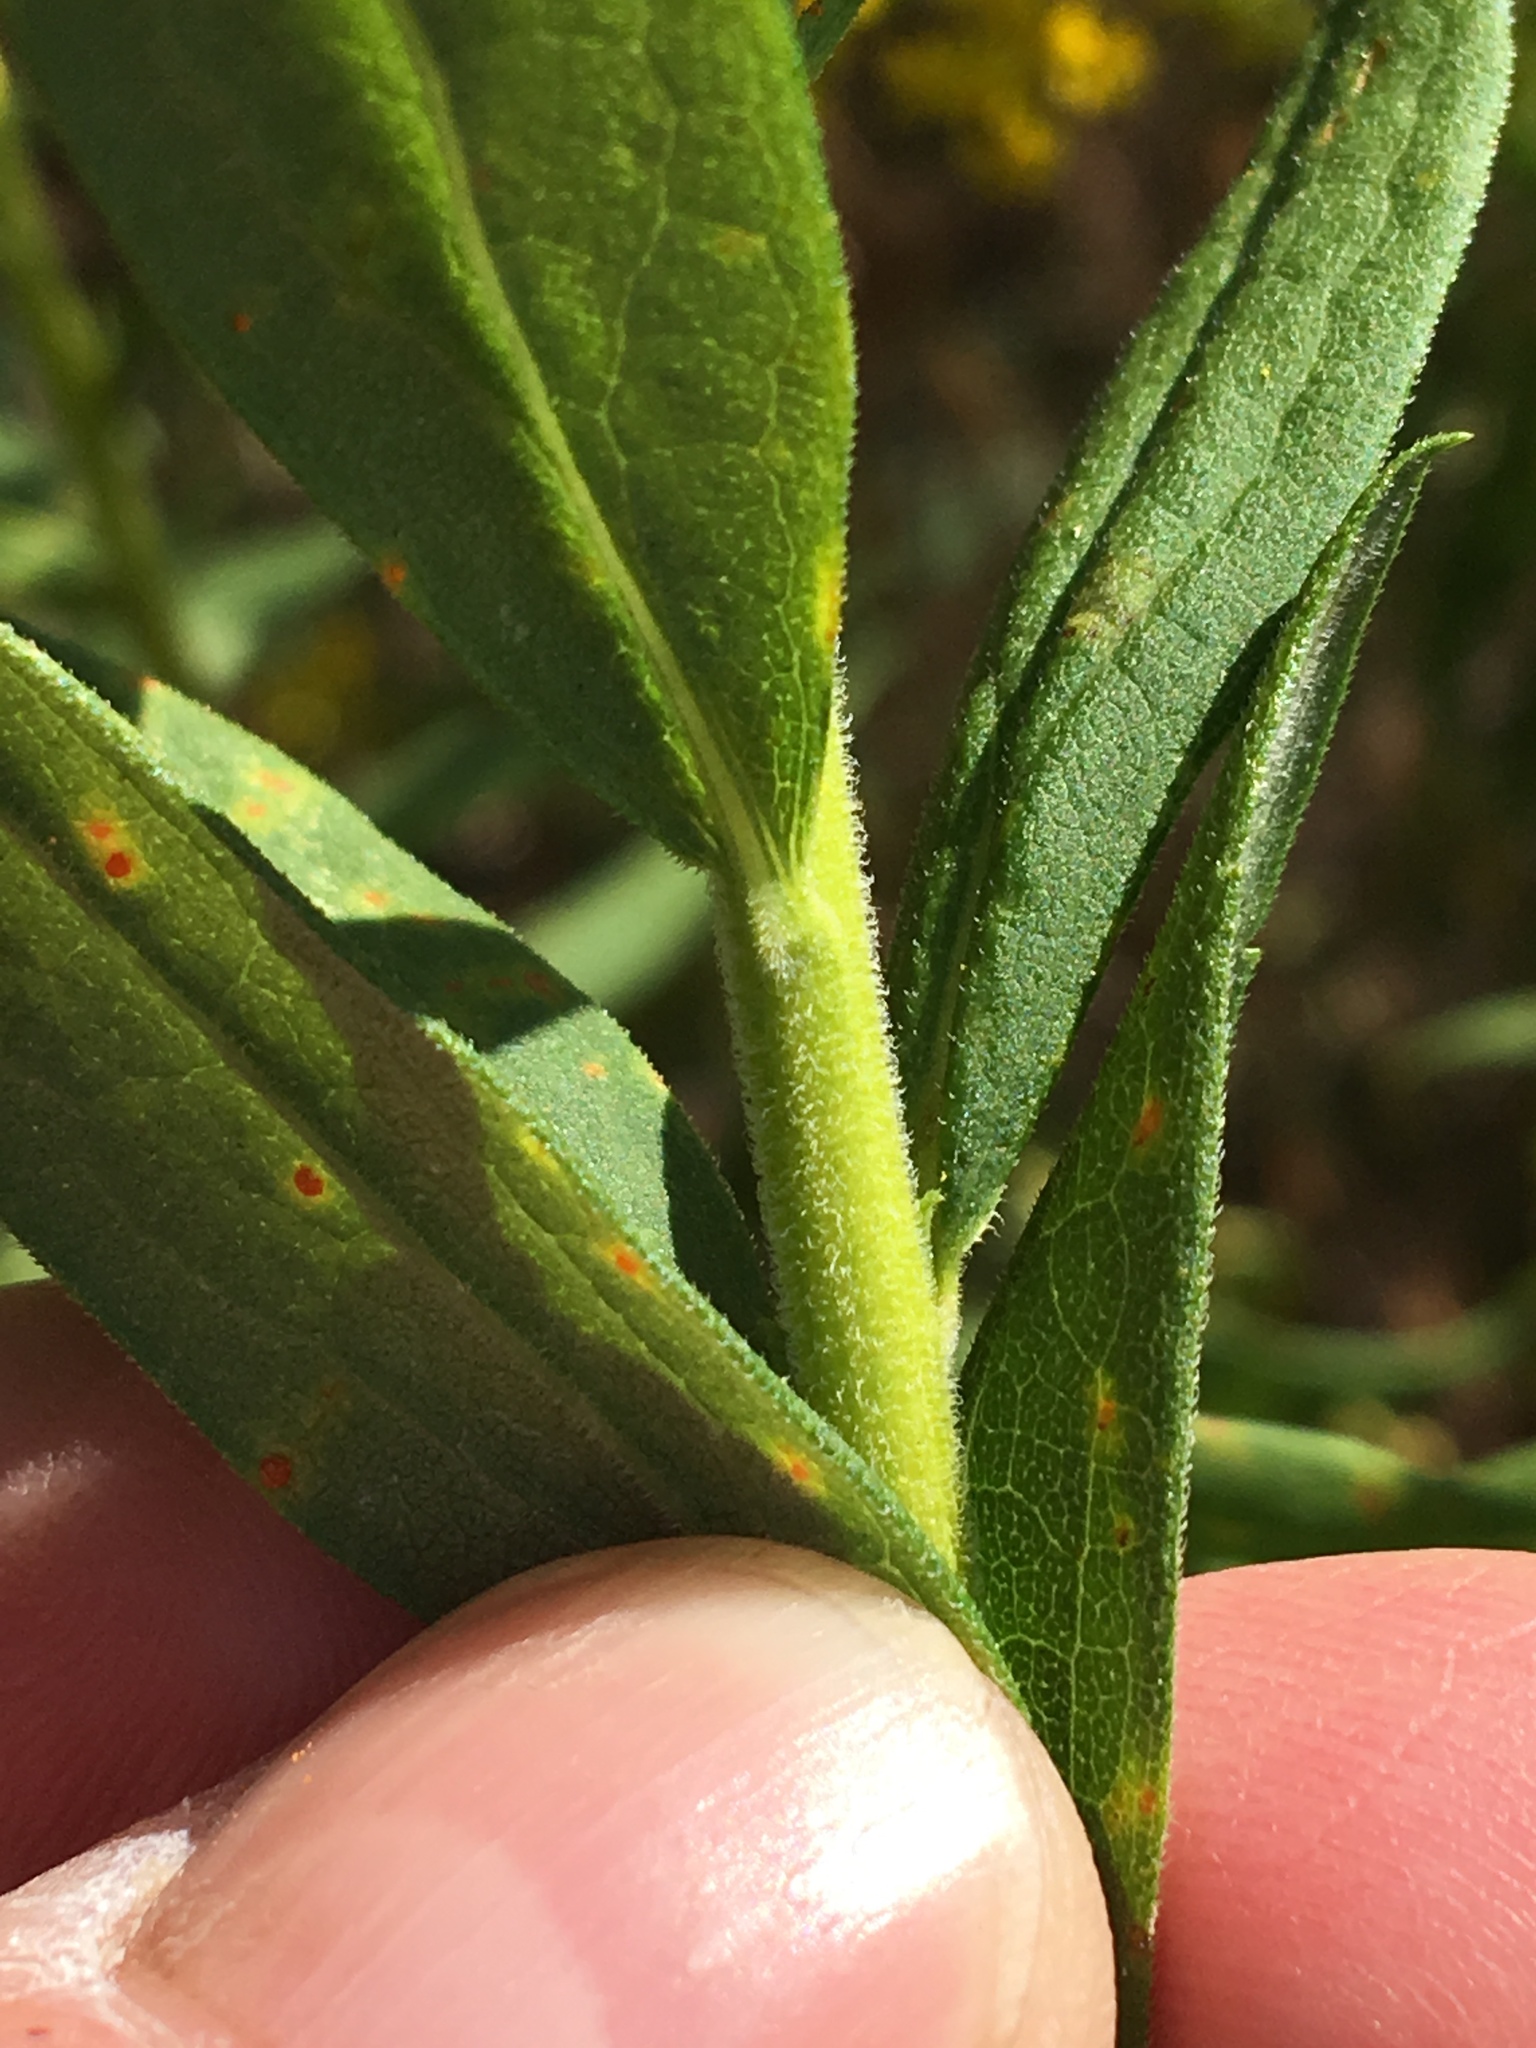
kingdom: Plantae
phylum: Tracheophyta
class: Magnoliopsida
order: Asterales
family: Asteraceae
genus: Solidago
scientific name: Solidago altissima
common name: Late goldenrod
